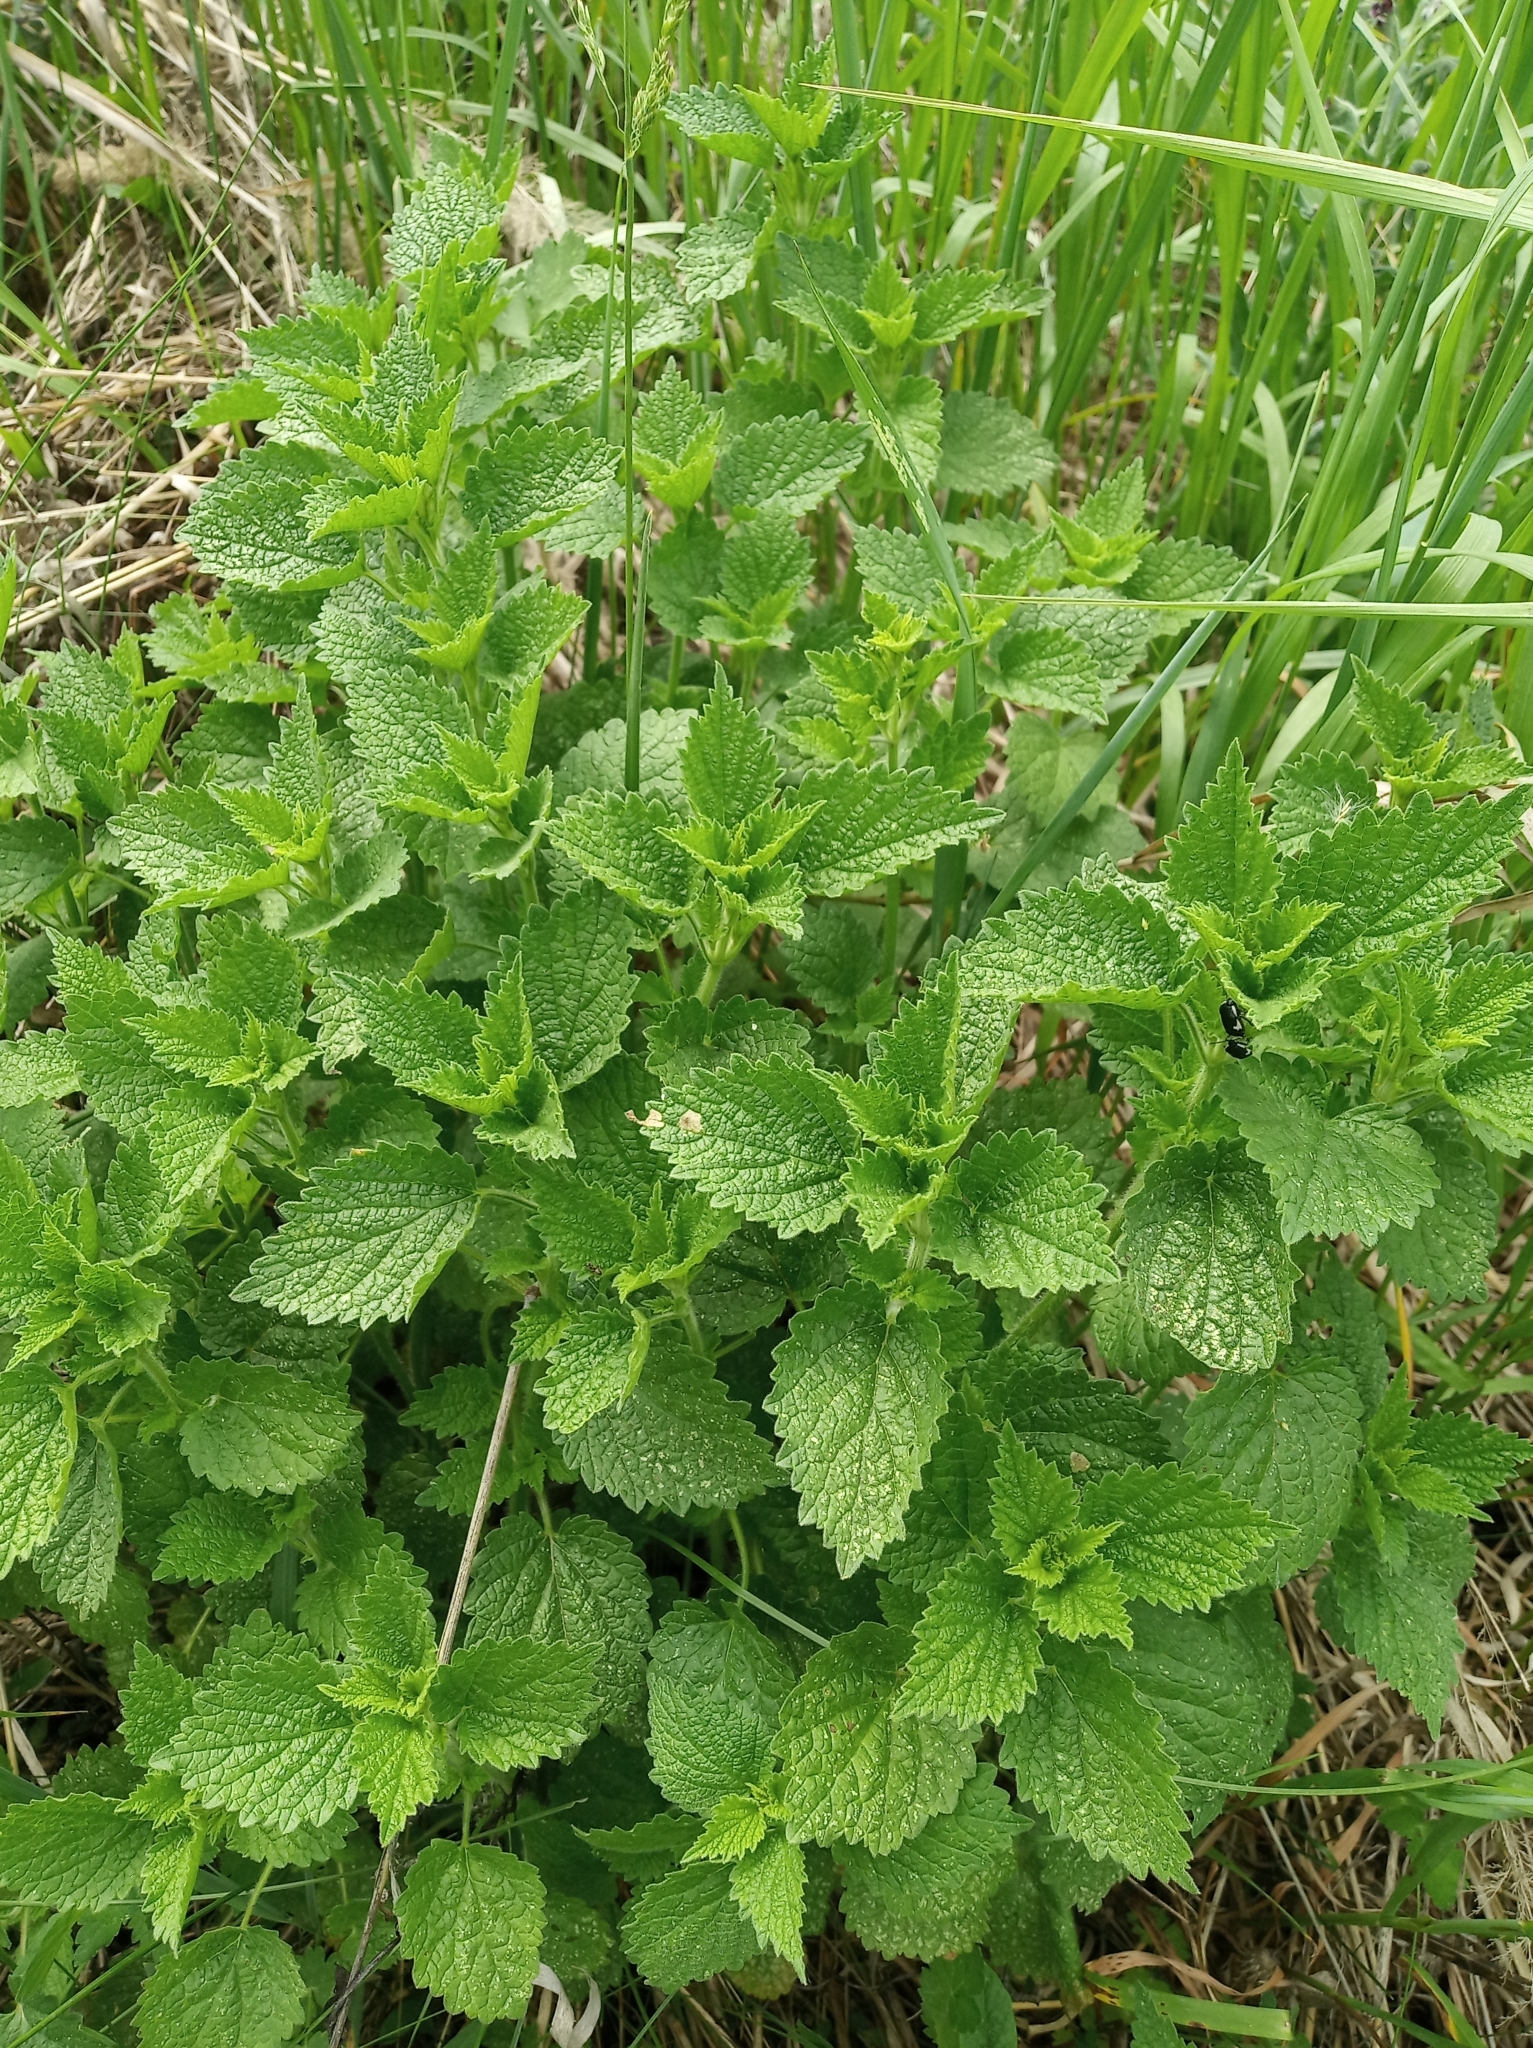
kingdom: Plantae
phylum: Tracheophyta
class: Magnoliopsida
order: Lamiales
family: Lamiaceae
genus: Ballota
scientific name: Ballota nigra
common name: Black horehound
